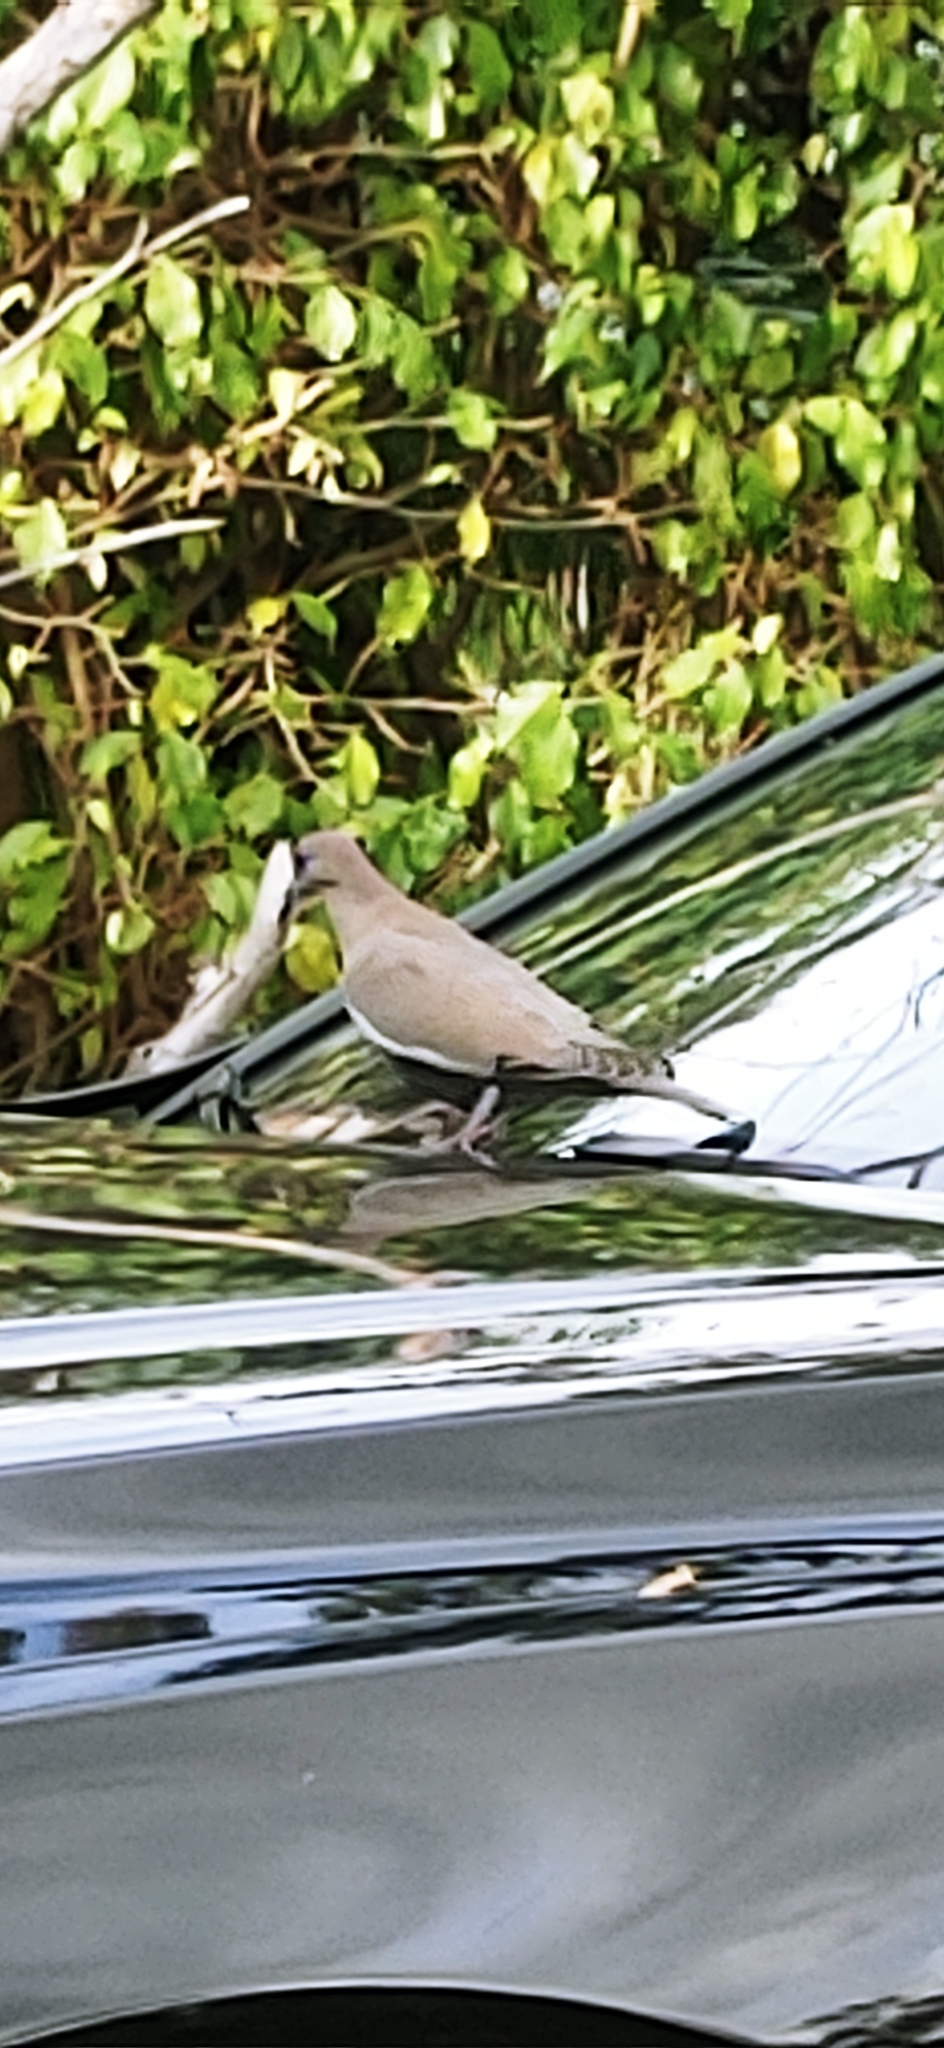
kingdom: Animalia
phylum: Chordata
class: Aves
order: Columbiformes
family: Columbidae
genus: Zenaida
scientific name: Zenaida asiatica
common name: White-winged dove
